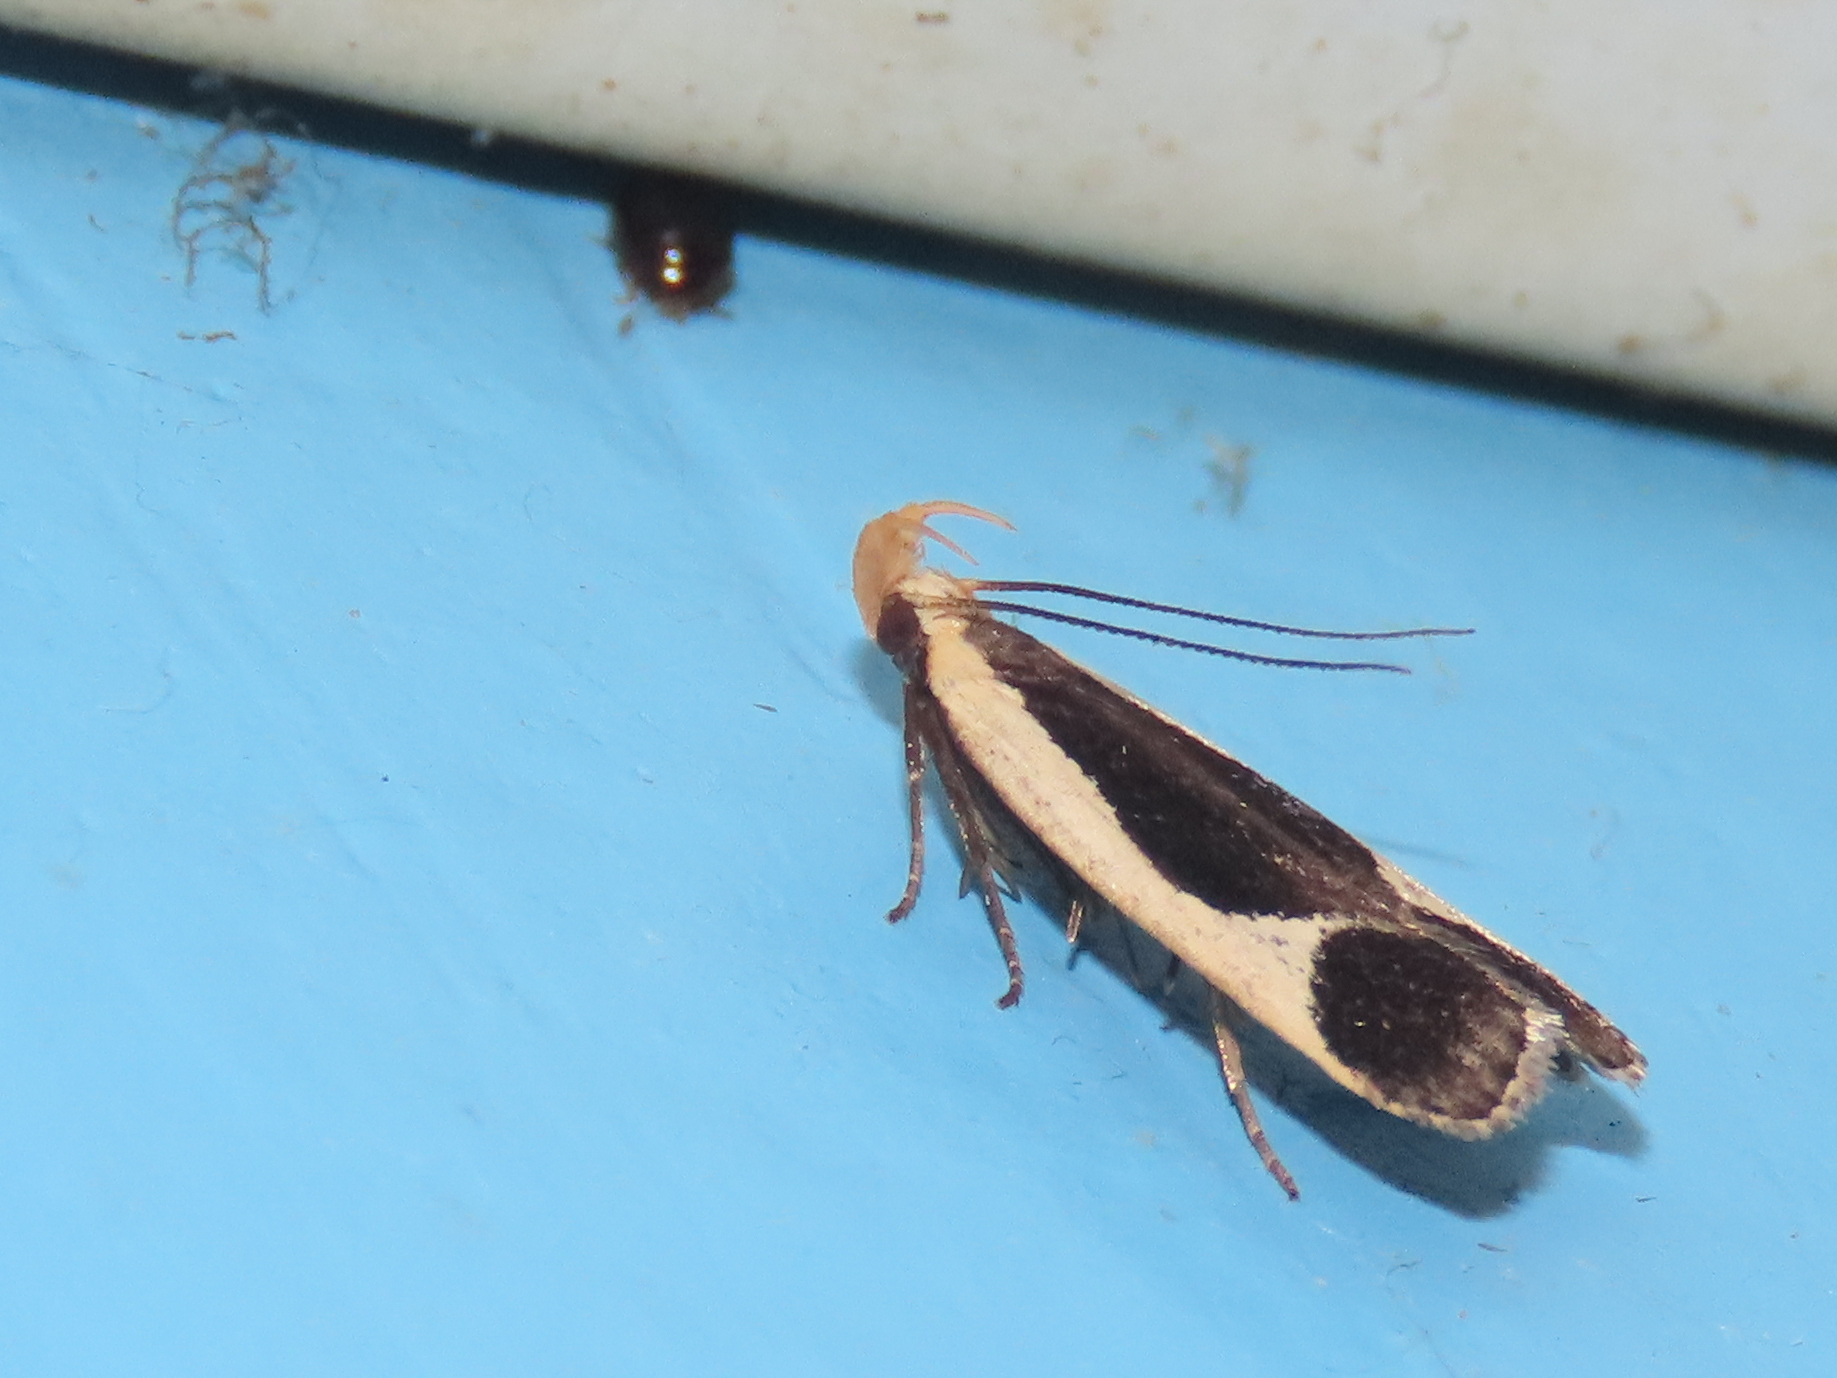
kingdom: Animalia
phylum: Arthropoda
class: Insecta
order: Lepidoptera
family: Gelechiidae
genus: Dichomeris
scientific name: Dichomeris flavocostella
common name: Cream-edged dichomeris moth
